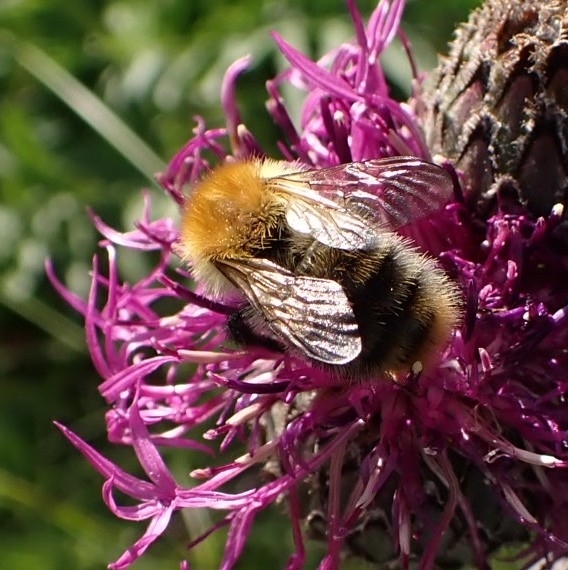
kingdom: Animalia
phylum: Arthropoda
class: Insecta
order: Hymenoptera
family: Apidae
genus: Bombus
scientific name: Bombus pascuorum
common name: Common carder bee
